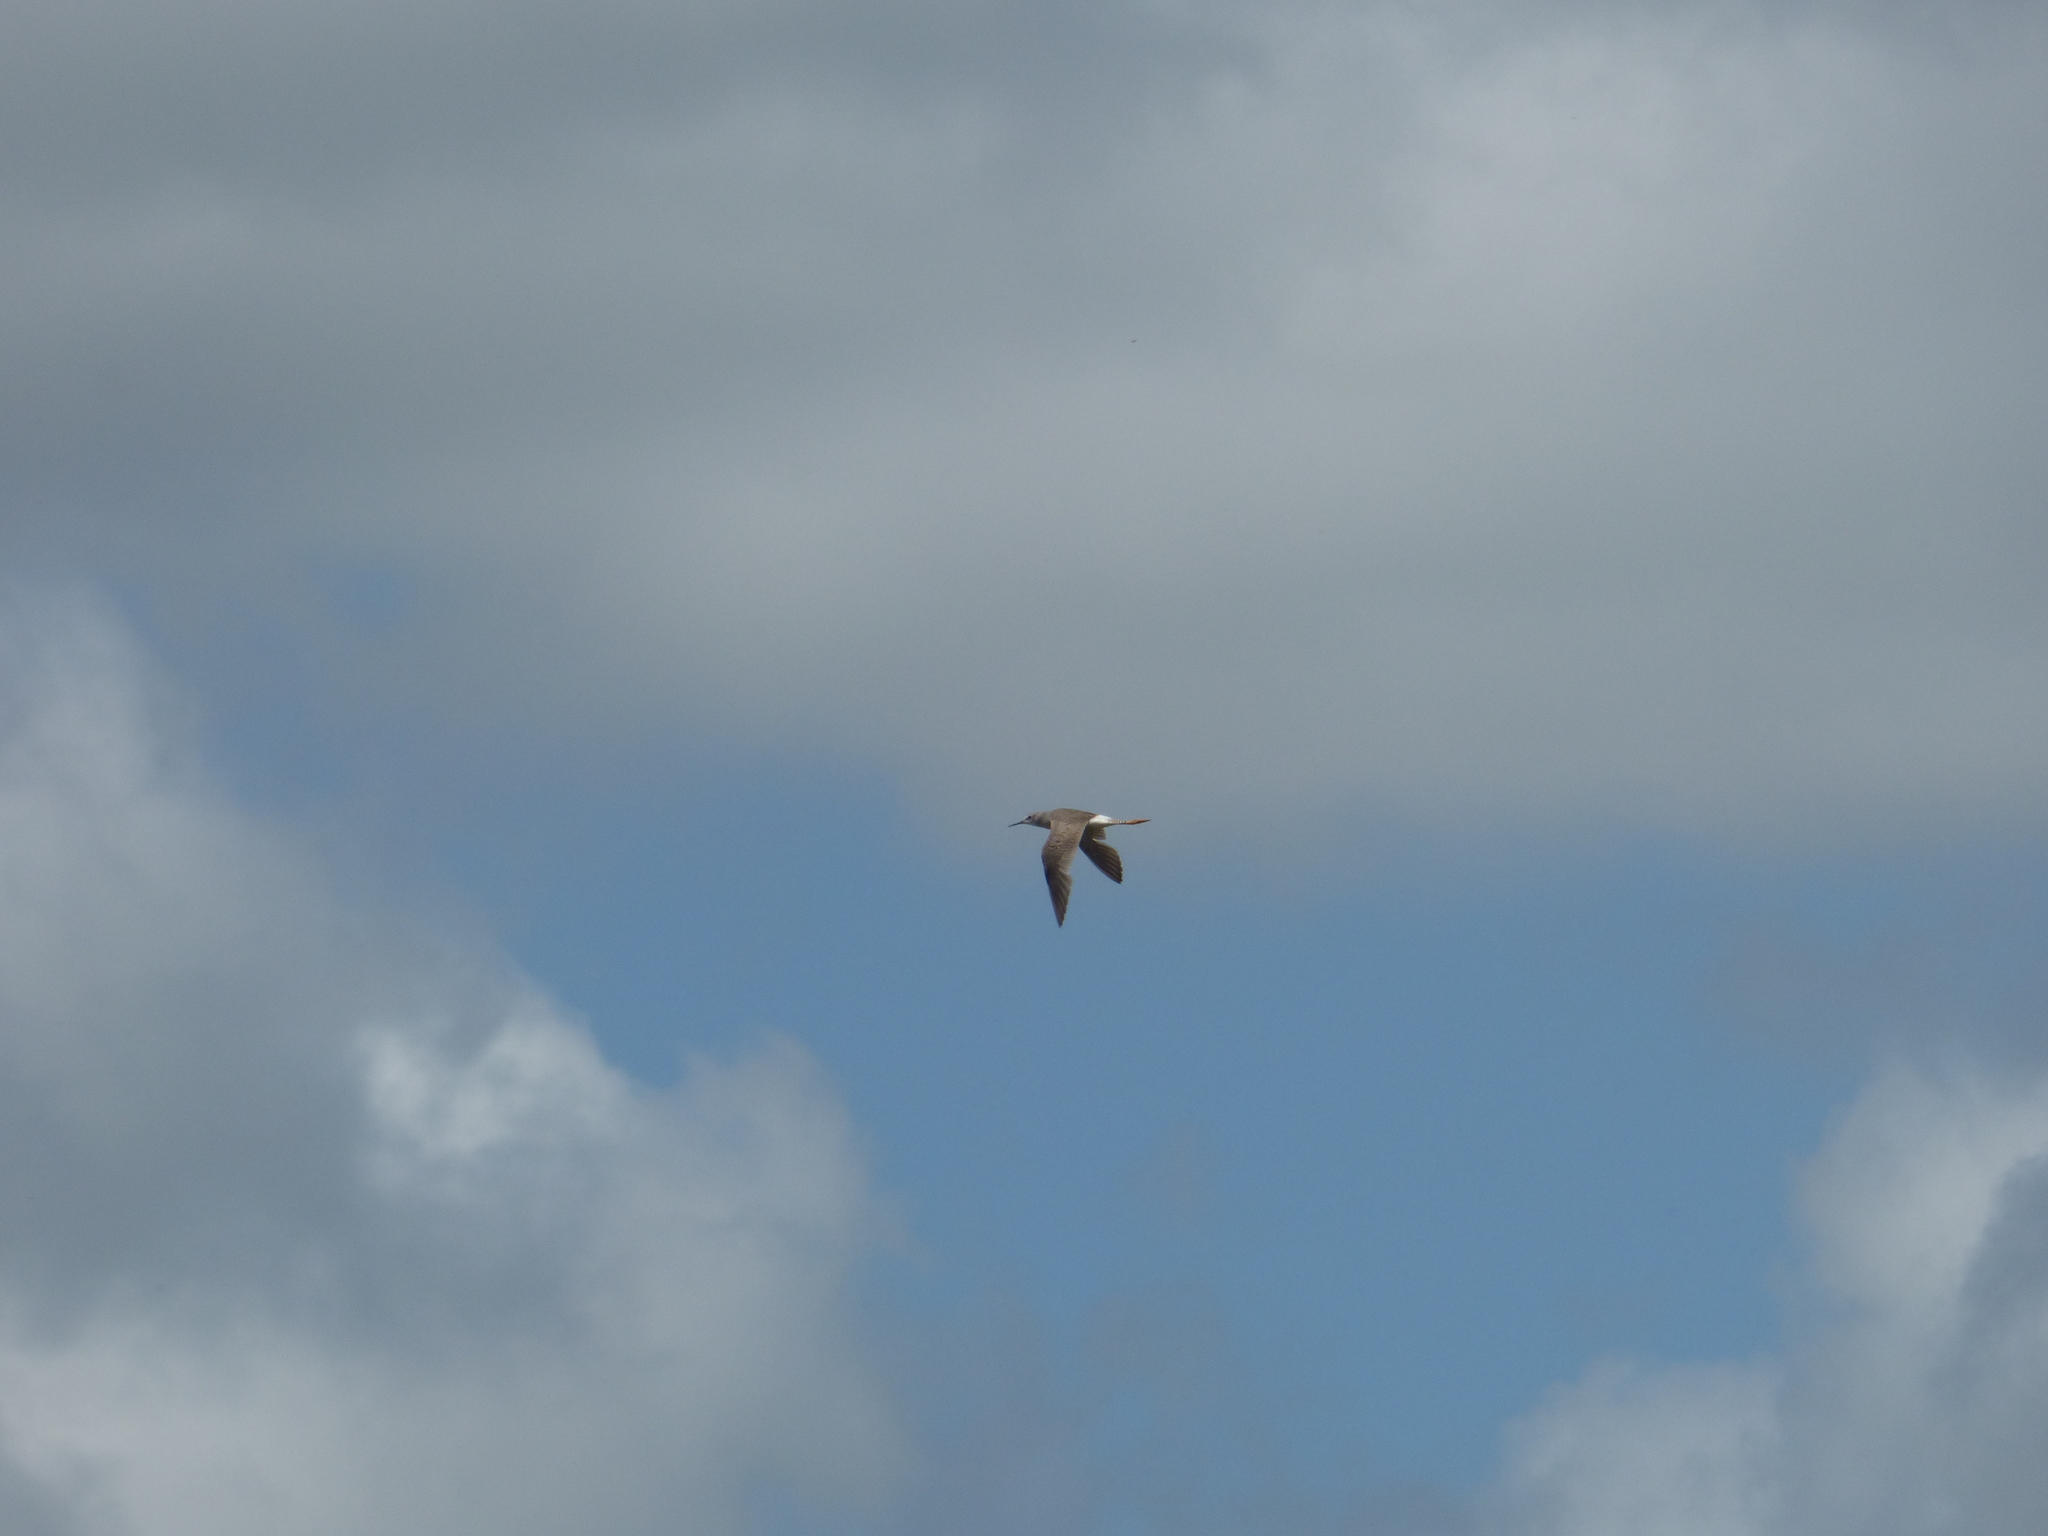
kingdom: Animalia
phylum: Chordata
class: Aves
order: Charadriiformes
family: Scolopacidae
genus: Tringa
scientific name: Tringa flavipes
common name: Lesser yellowlegs
